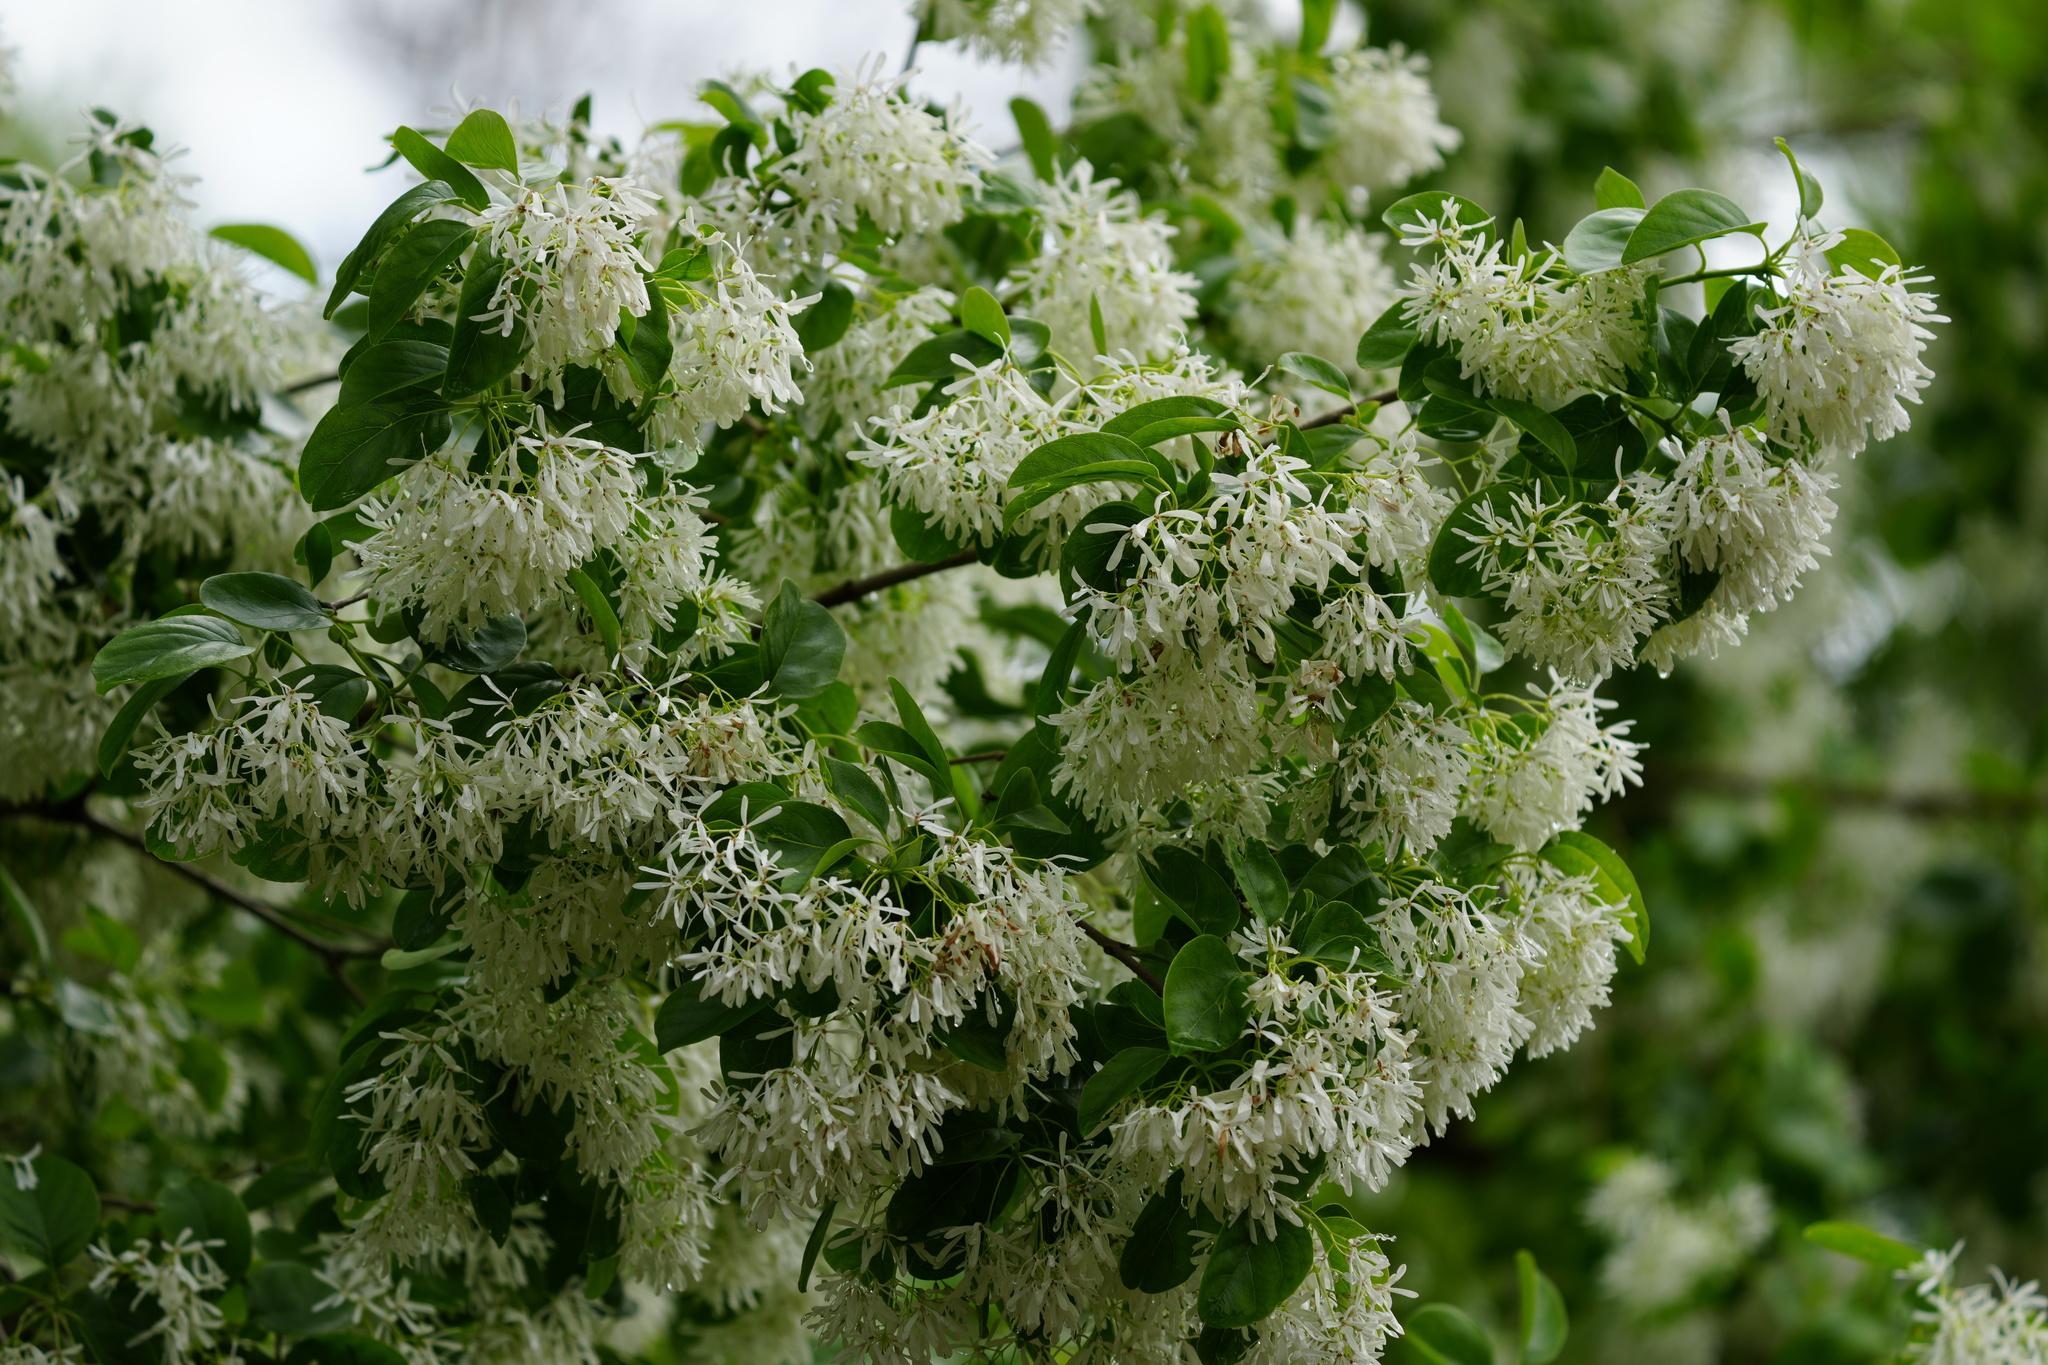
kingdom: Plantae
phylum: Tracheophyta
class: Magnoliopsida
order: Lamiales
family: Oleaceae
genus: Chionanthus
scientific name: Chionanthus virginicus
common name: American fringetree
